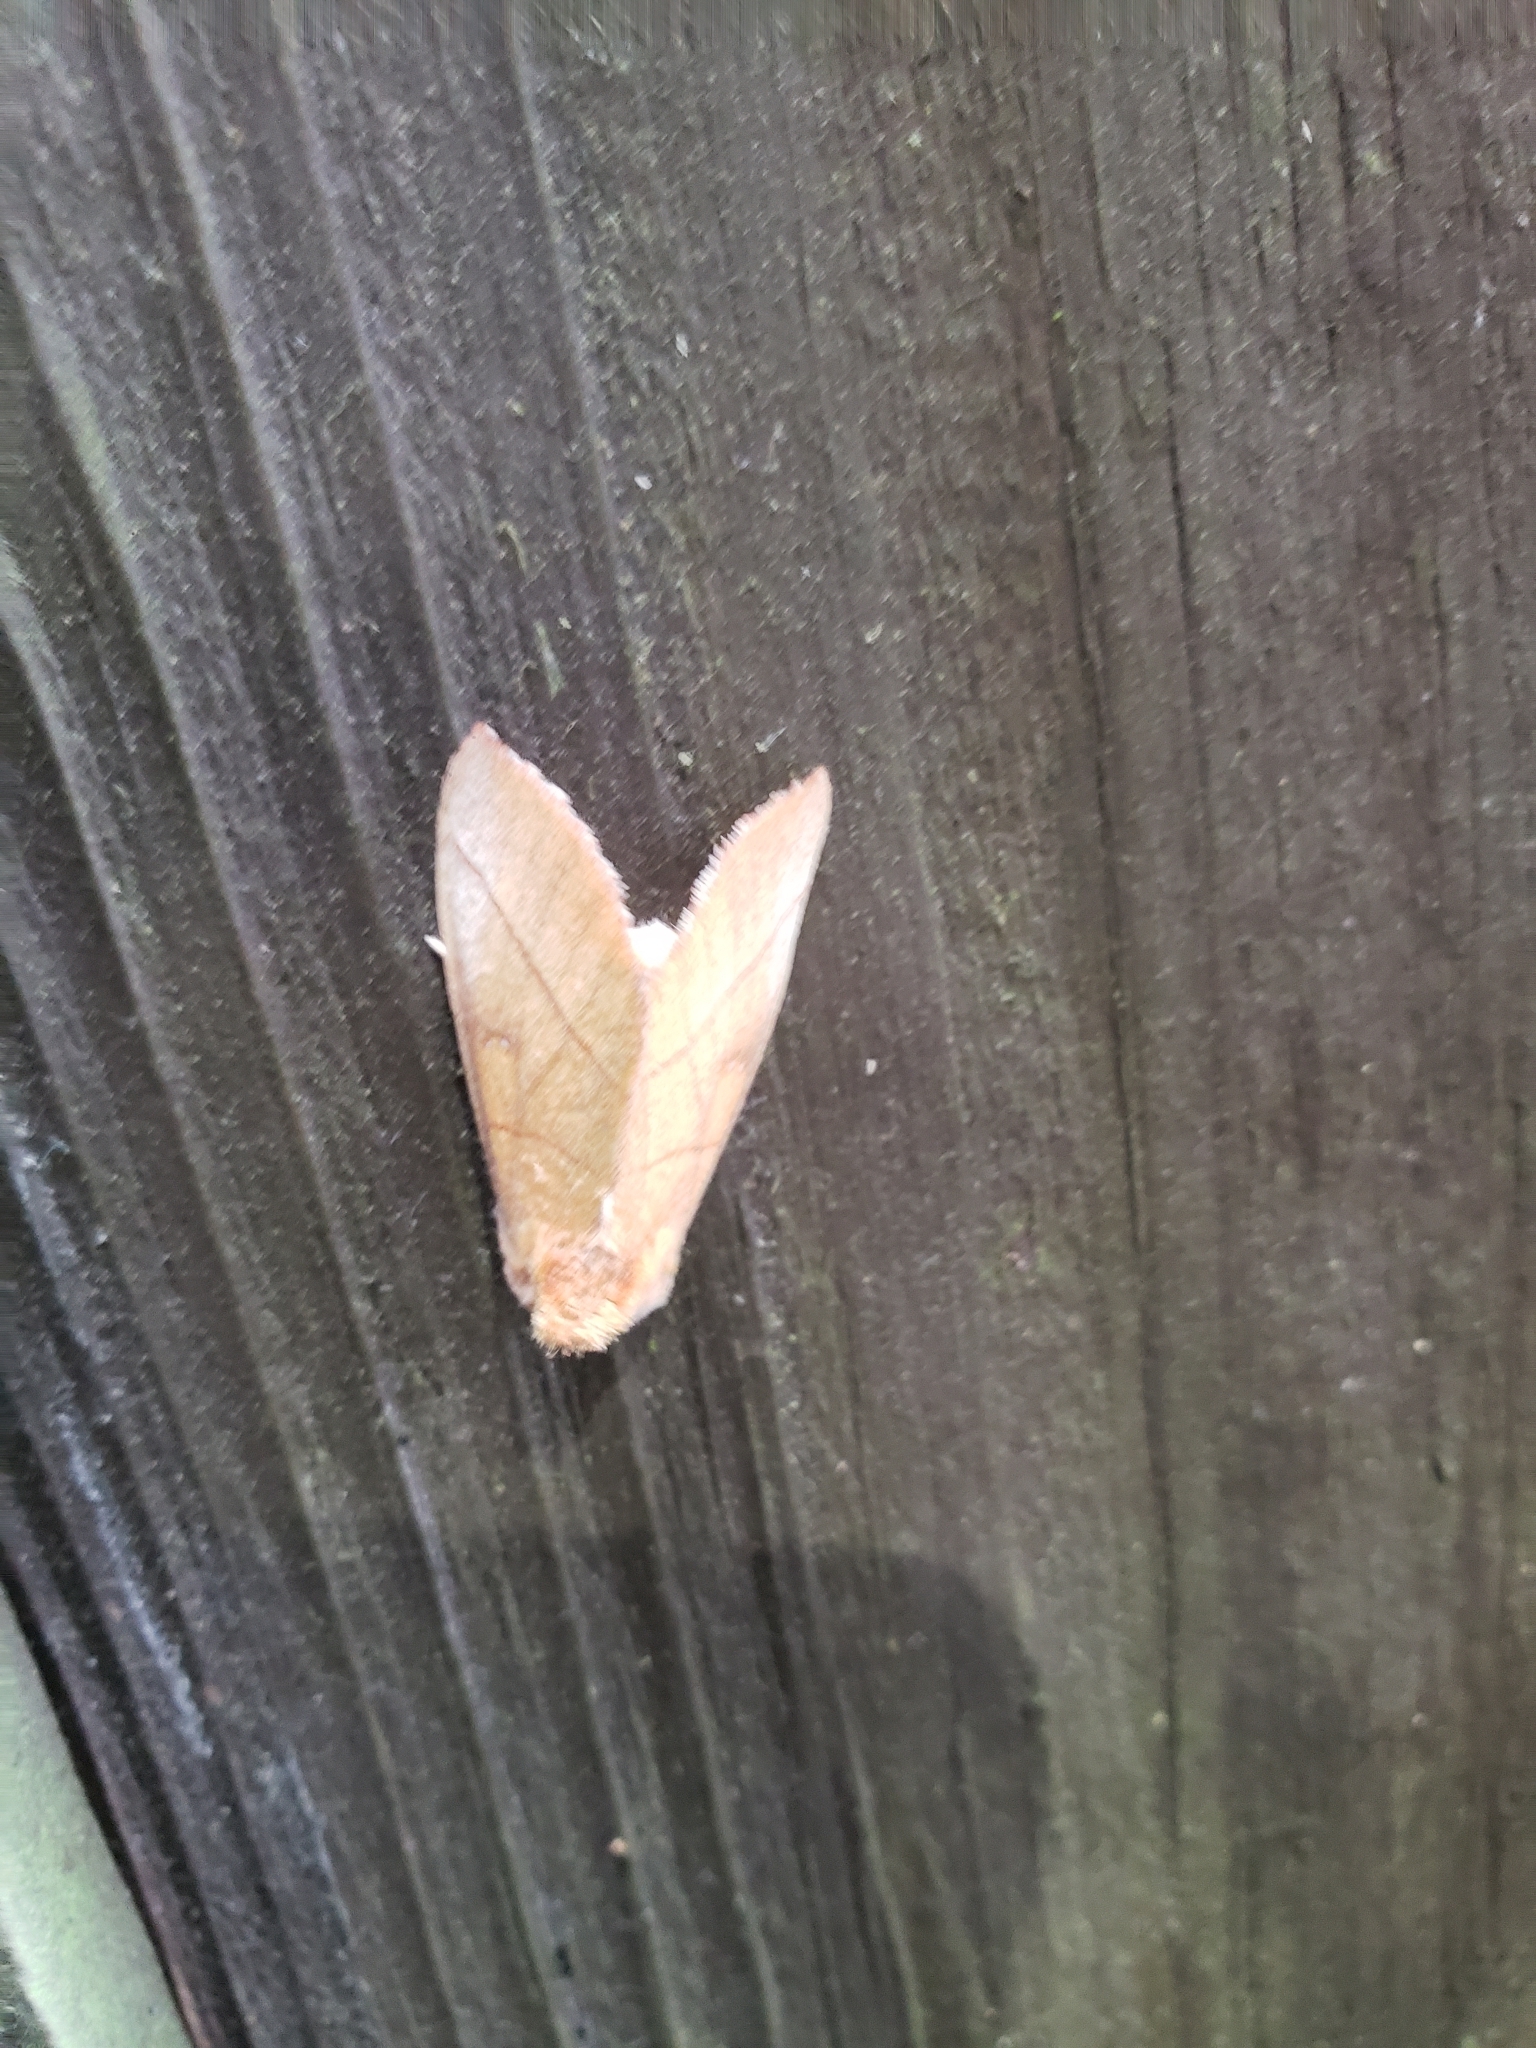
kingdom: Animalia
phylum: Arthropoda
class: Insecta
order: Lepidoptera
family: Notodontidae
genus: Nadata
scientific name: Nadata gibbosa
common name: White-dotted prominent
